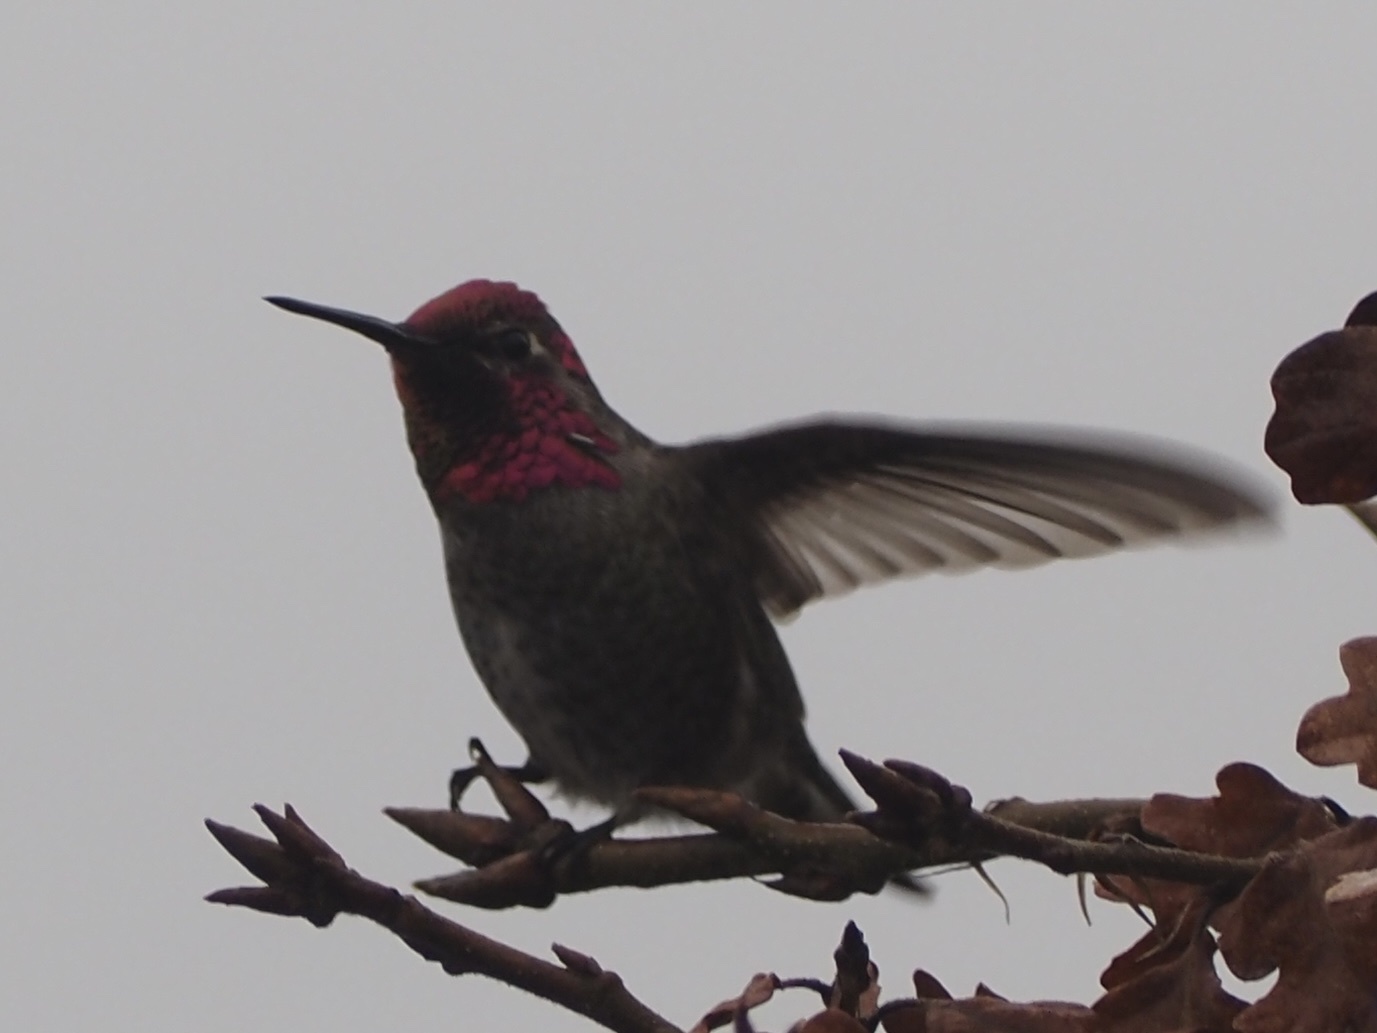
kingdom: Animalia
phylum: Chordata
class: Aves
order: Apodiformes
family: Trochilidae
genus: Calypte
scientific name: Calypte anna
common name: Anna's hummingbird
